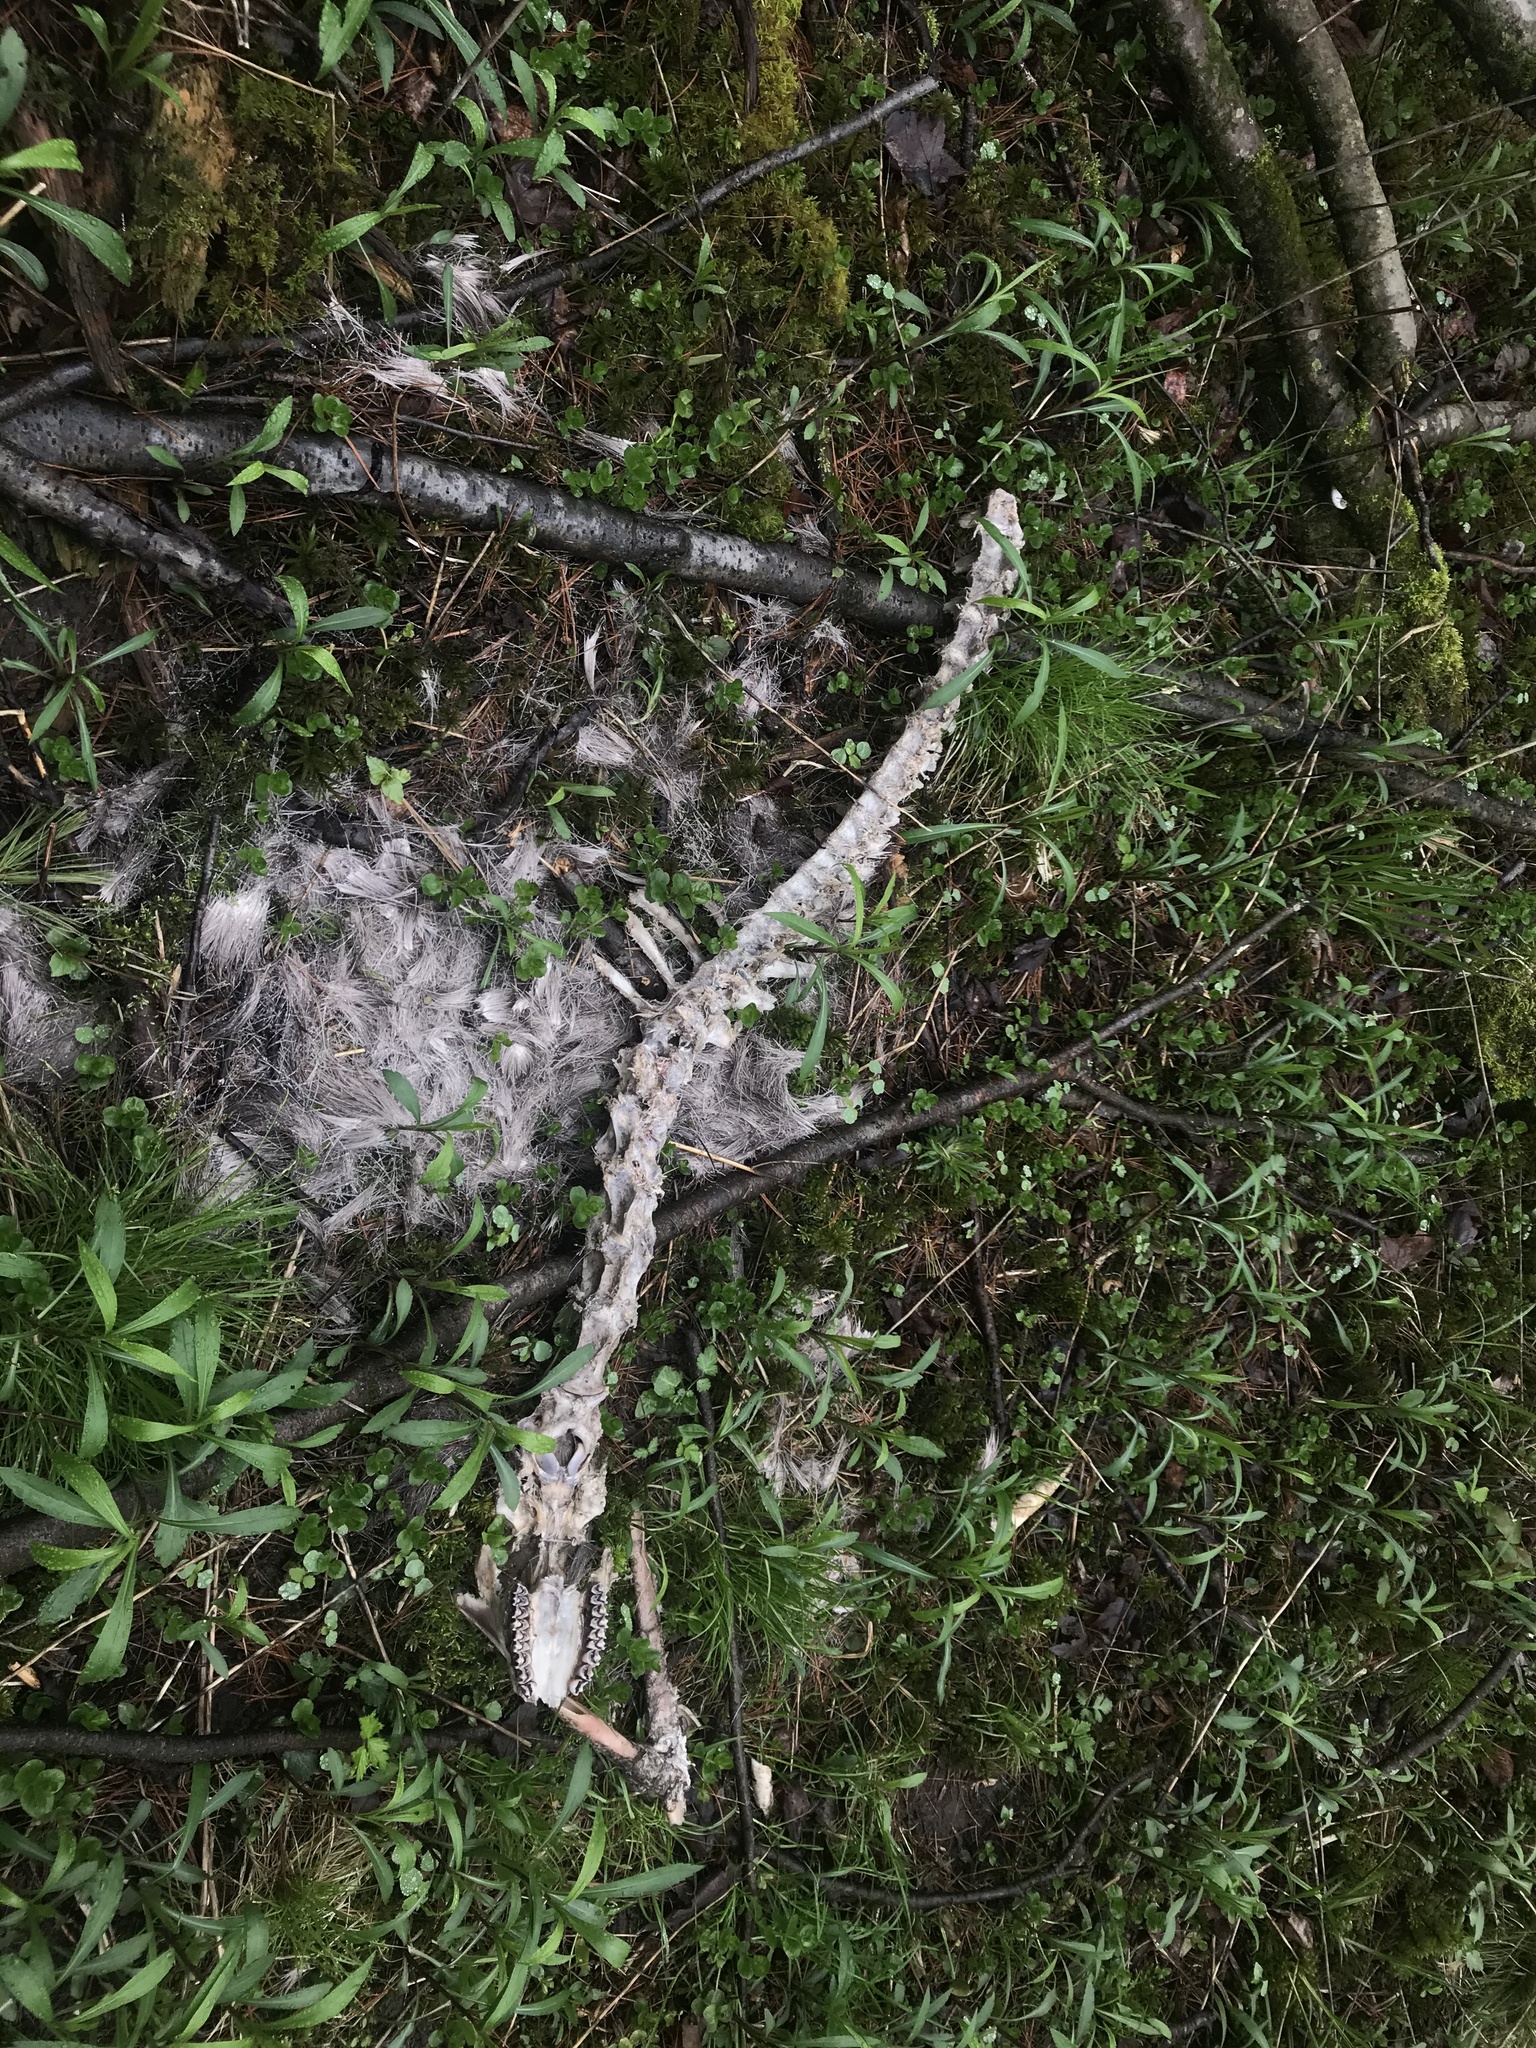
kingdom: Animalia
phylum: Chordata
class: Mammalia
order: Artiodactyla
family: Cervidae
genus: Odocoileus
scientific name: Odocoileus virginianus
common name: White-tailed deer
